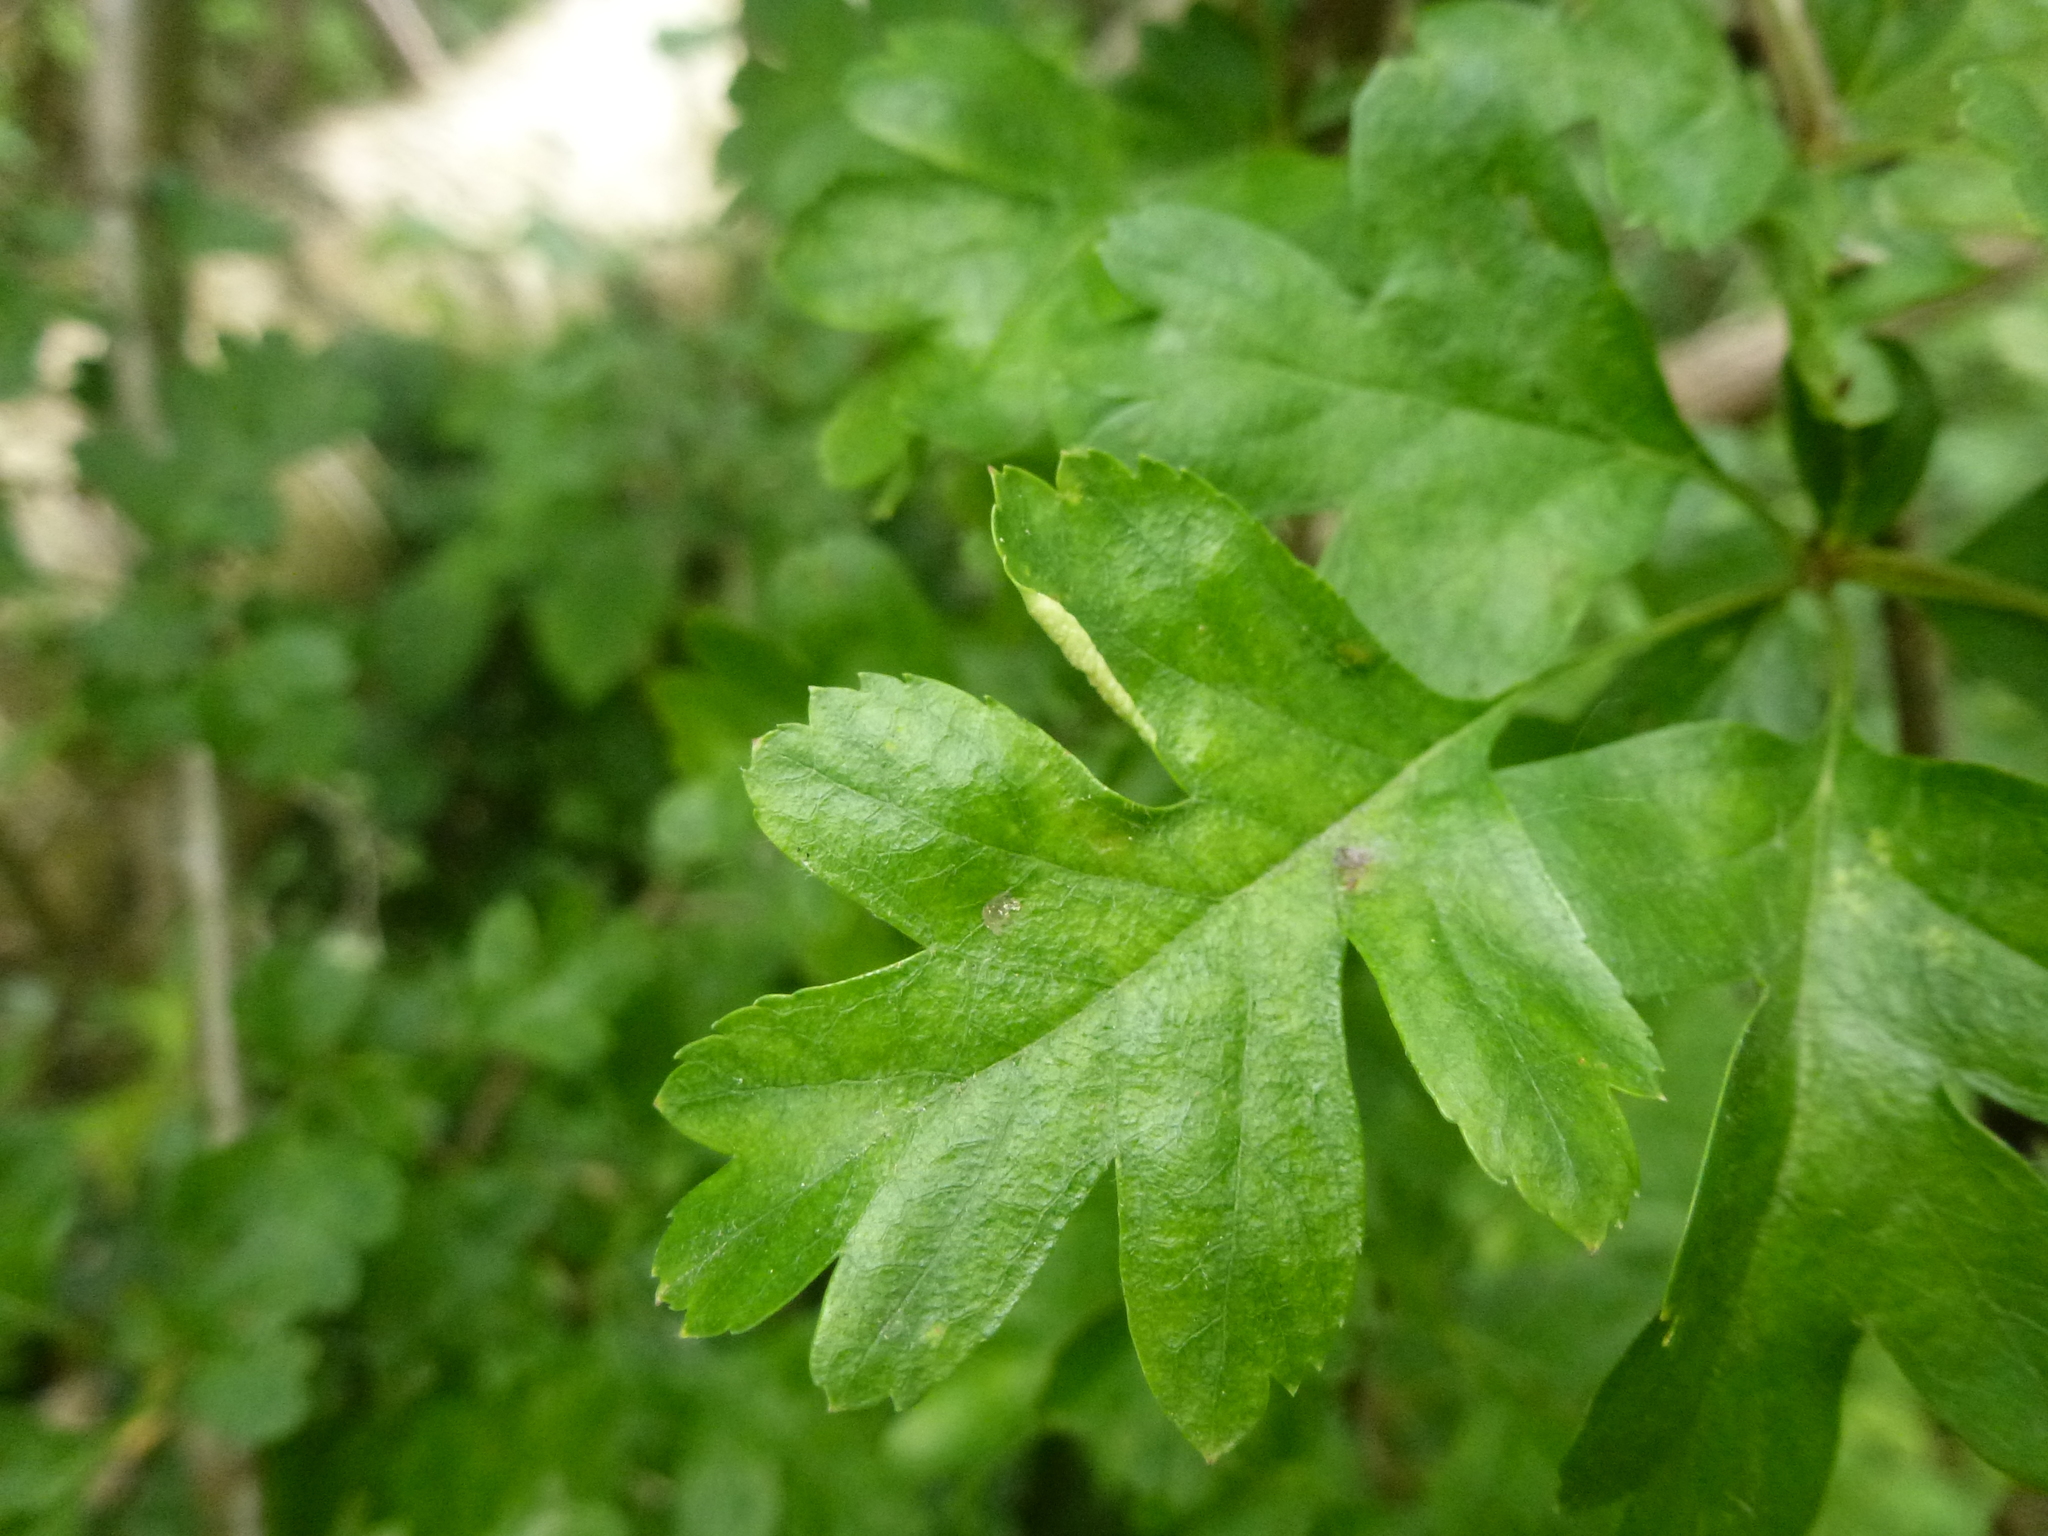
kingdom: Animalia
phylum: Arthropoda
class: Arachnida
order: Trombidiformes
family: Eriophyidae
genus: Phyllocoptes
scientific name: Phyllocoptes goniothorax
